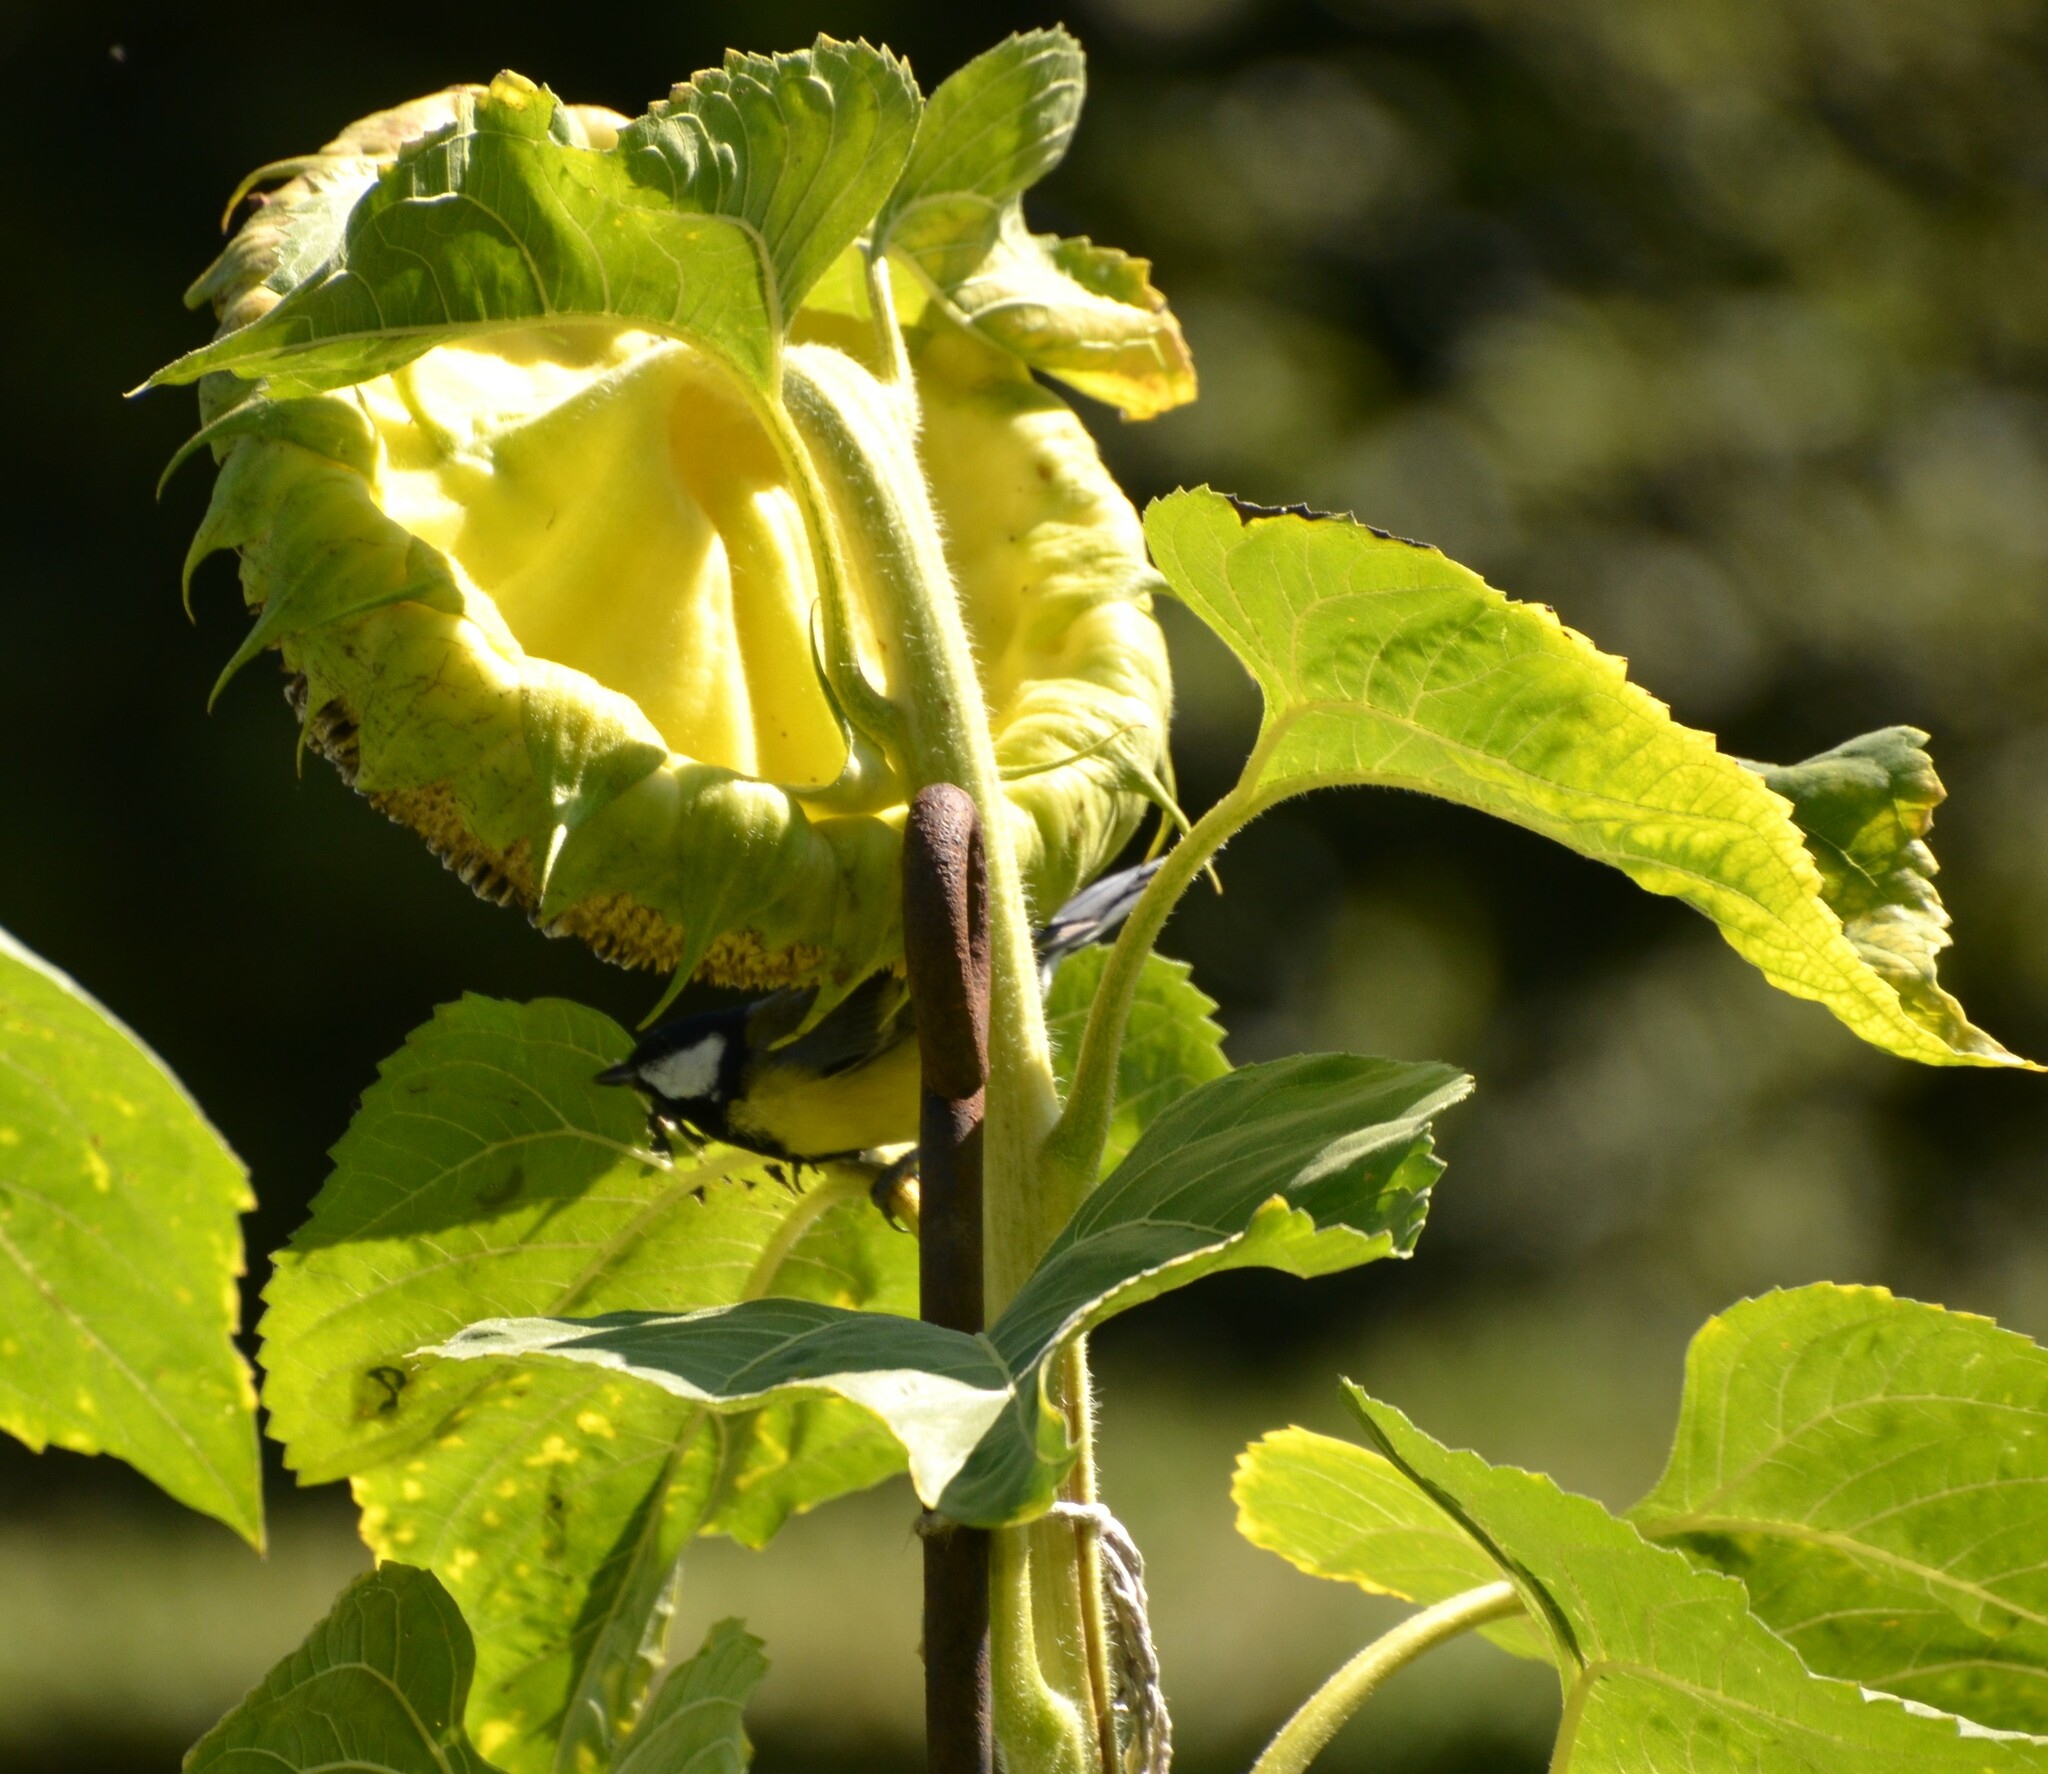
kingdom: Animalia
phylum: Chordata
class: Aves
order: Passeriformes
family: Paridae
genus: Parus
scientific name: Parus major
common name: Great tit
